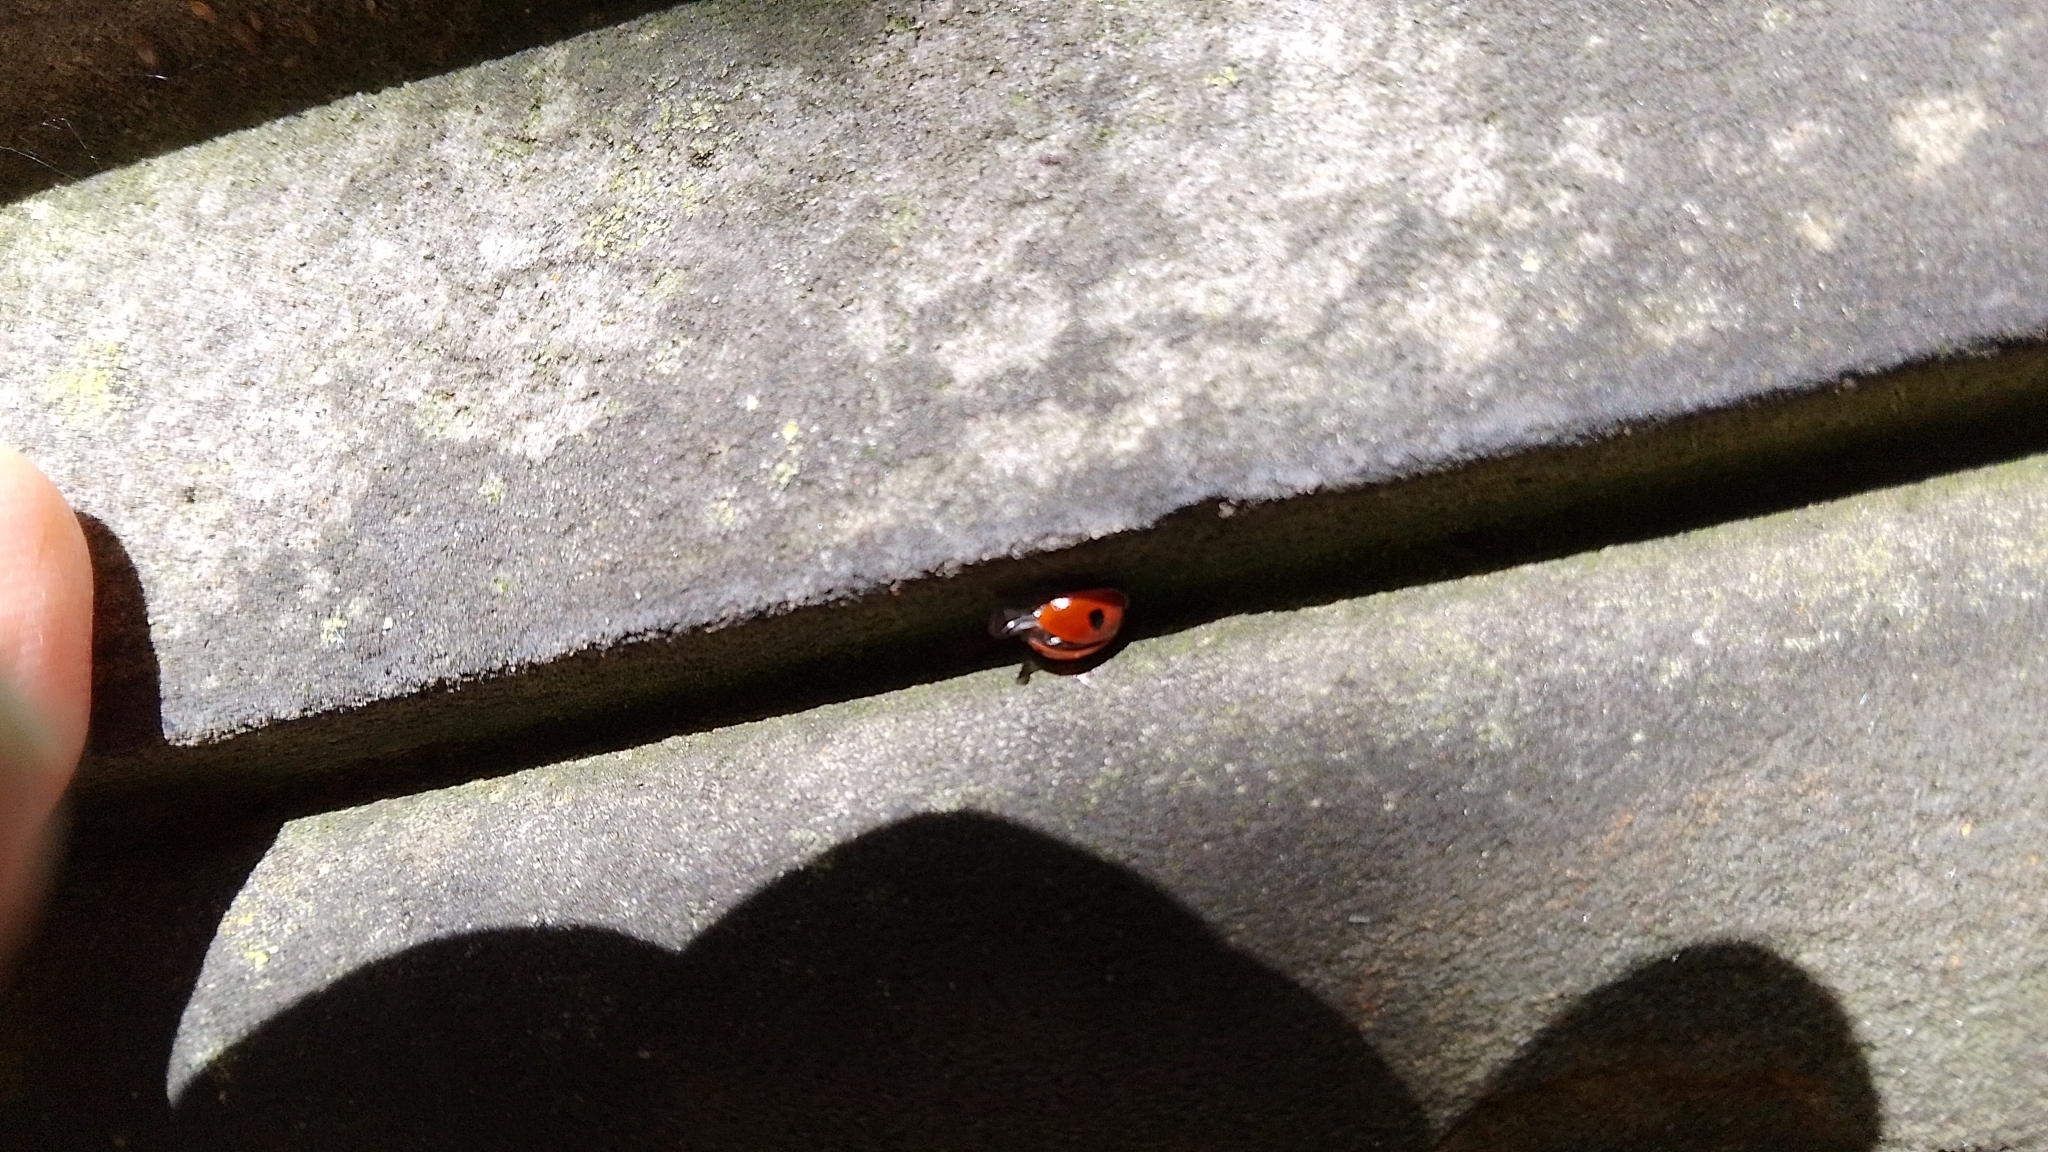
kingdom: Animalia
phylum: Arthropoda
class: Insecta
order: Coleoptera
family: Coccinellidae
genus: Adalia
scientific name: Adalia bipunctata
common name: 2-spot ladybird
